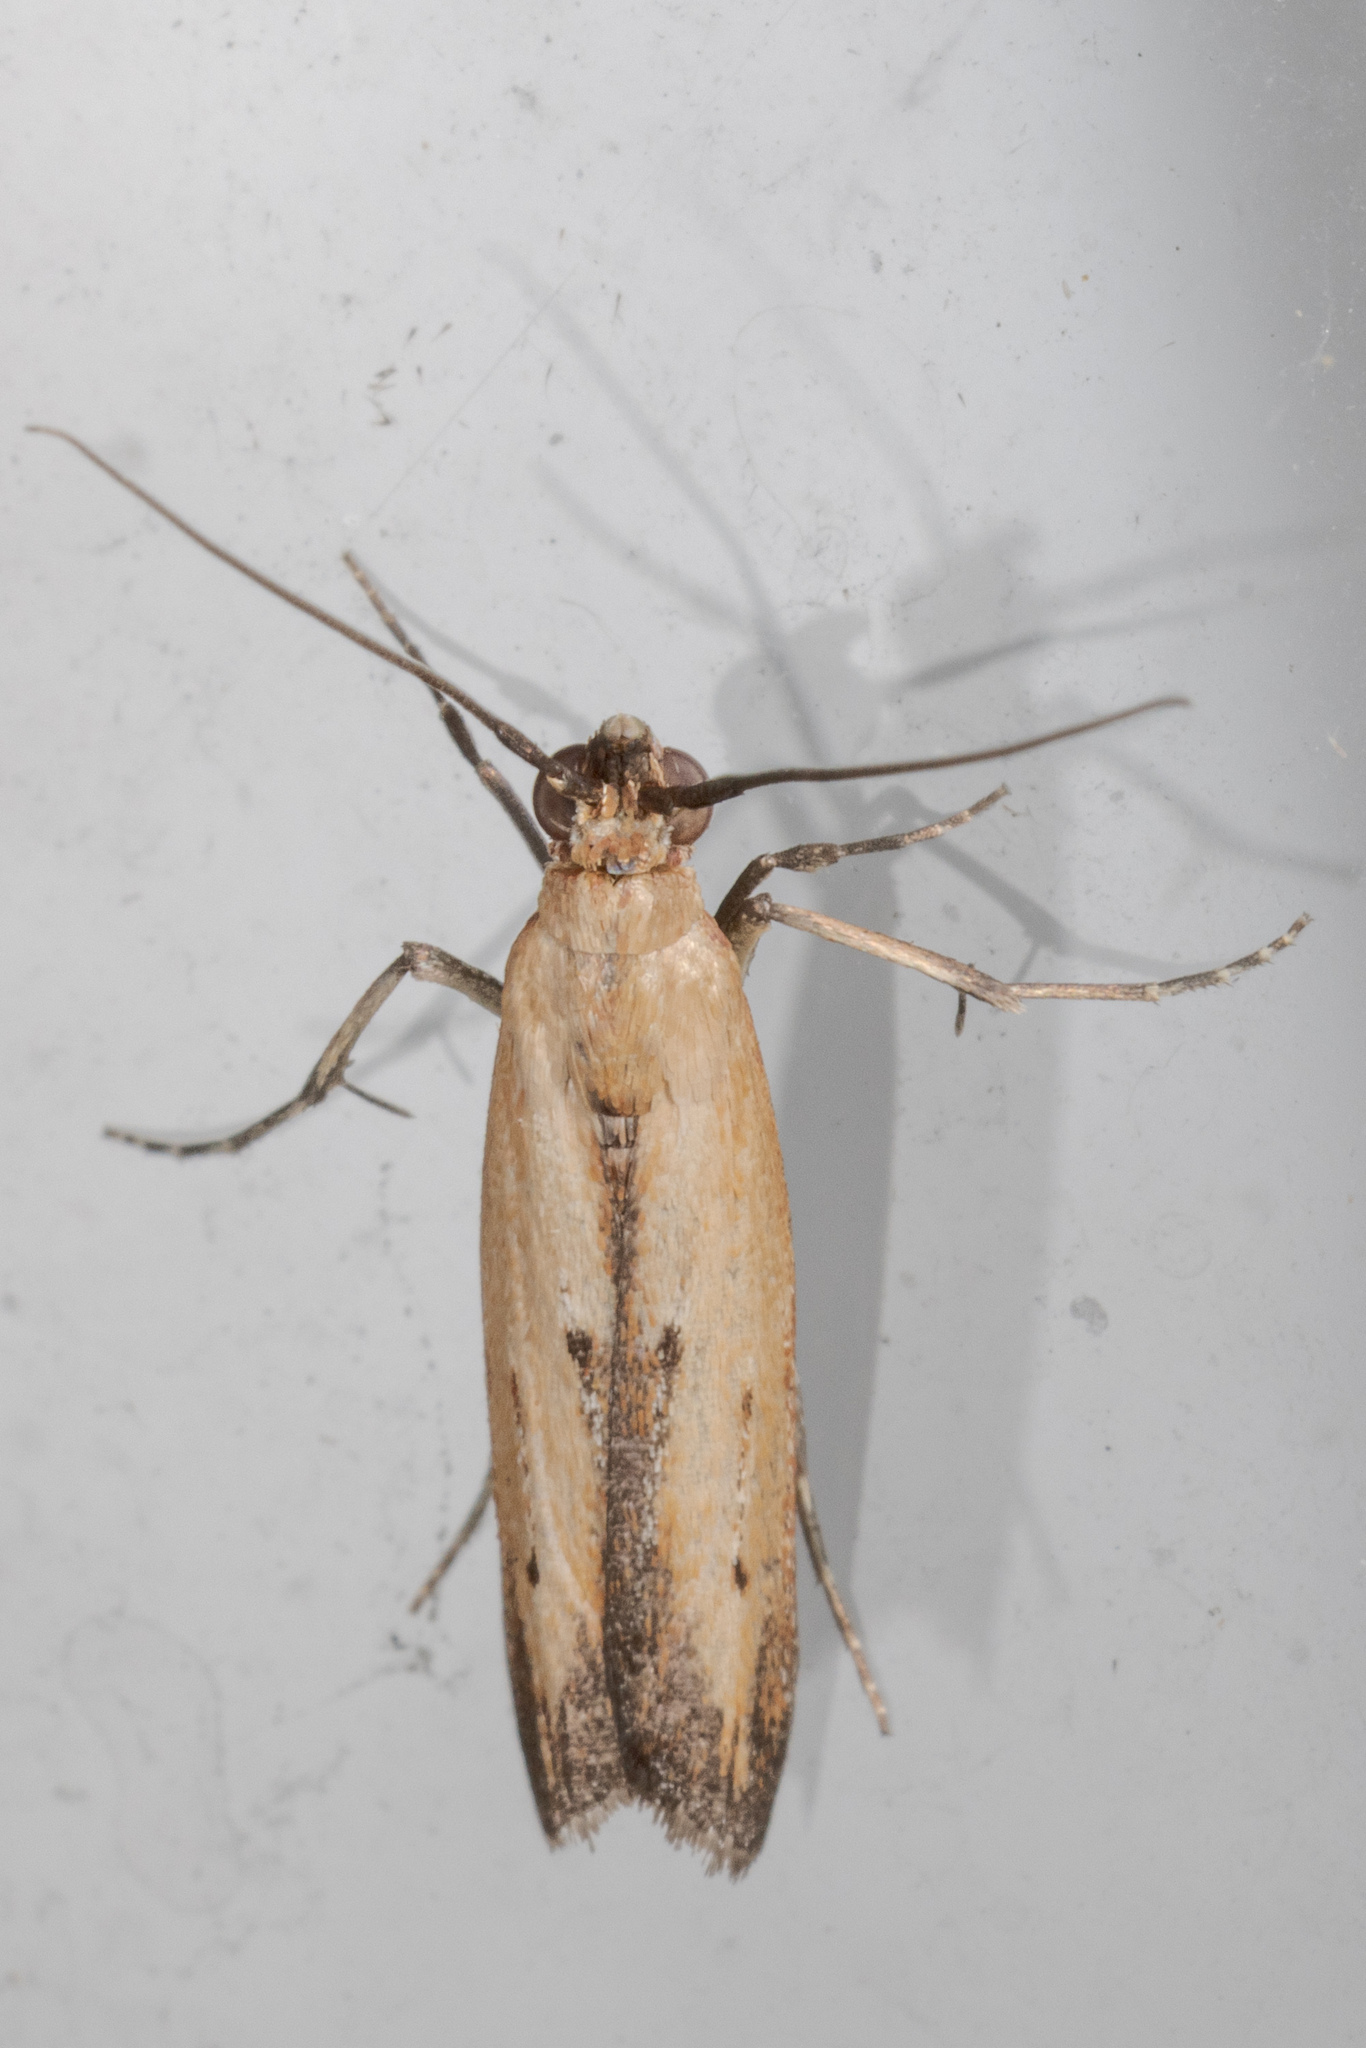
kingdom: Animalia
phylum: Arthropoda
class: Insecta
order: Lepidoptera
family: Pyralidae
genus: Elasmopalpus
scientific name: Elasmopalpus lignosella
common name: Lesser cornstalk borer
